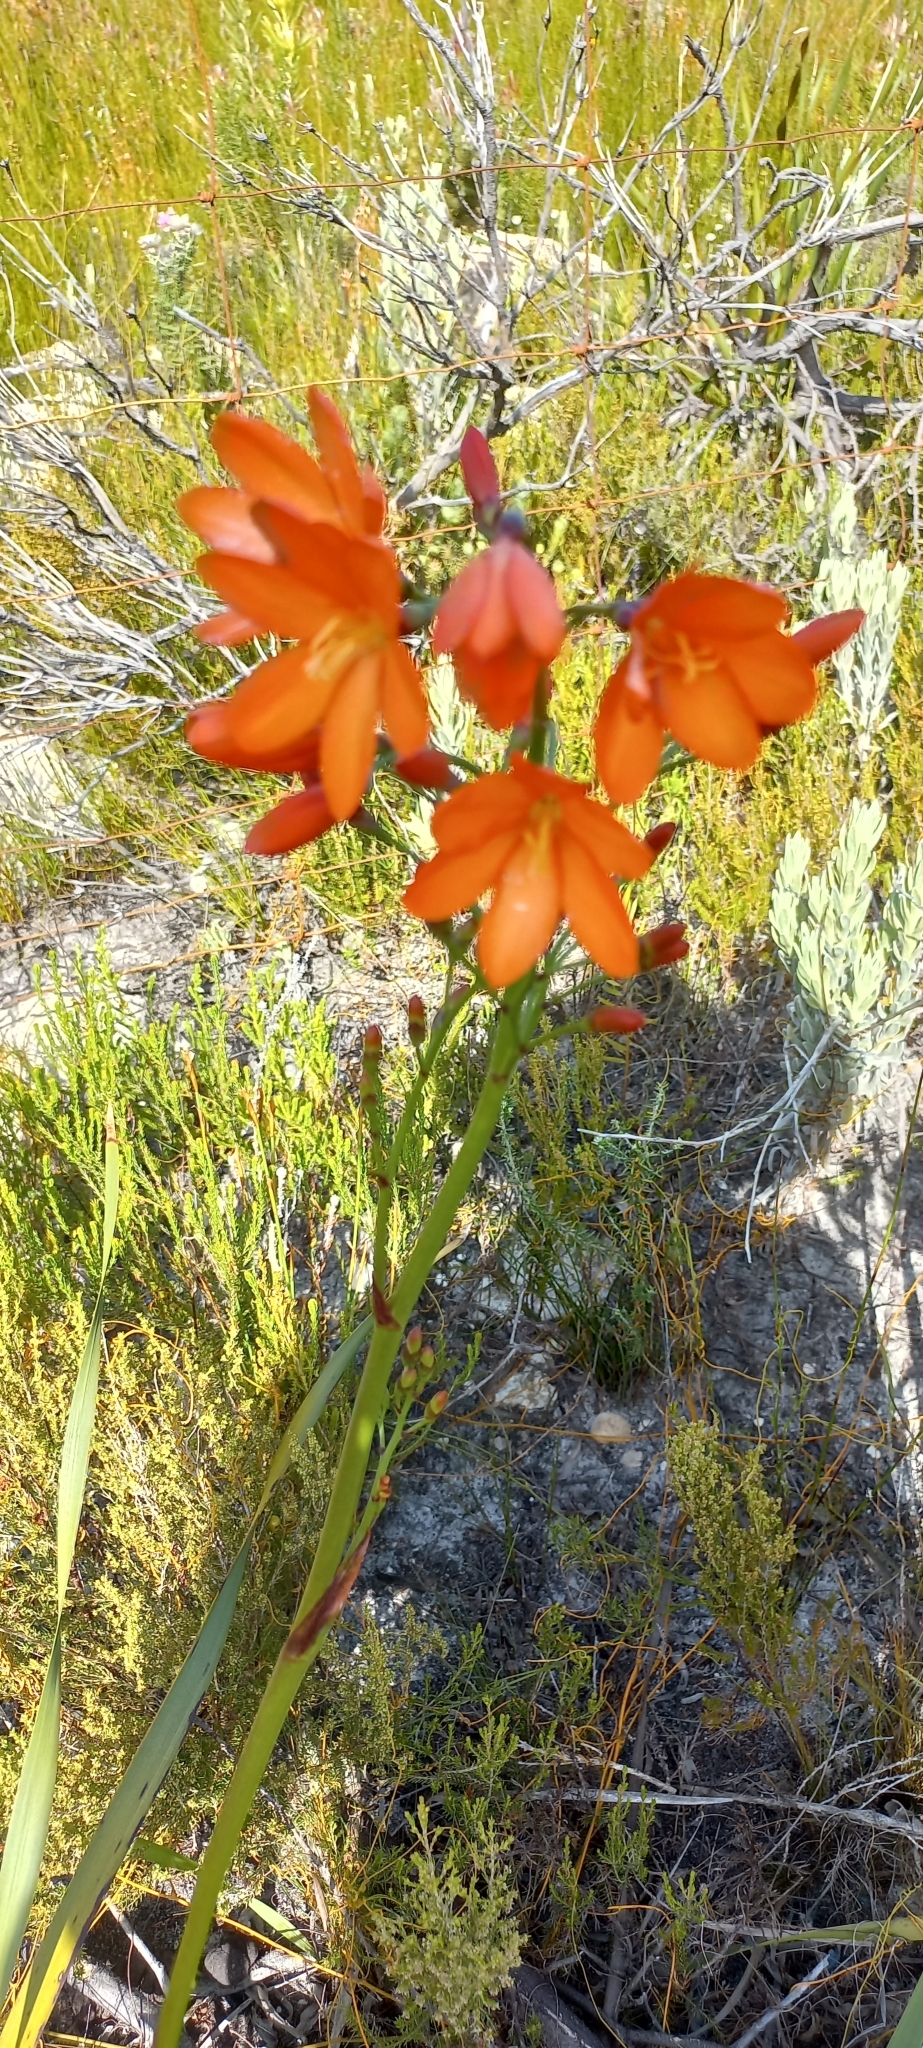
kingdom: Plantae
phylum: Tracheophyta
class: Liliopsida
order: Asparagales
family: Iridaceae
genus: Pillansia
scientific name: Pillansia templemannii
